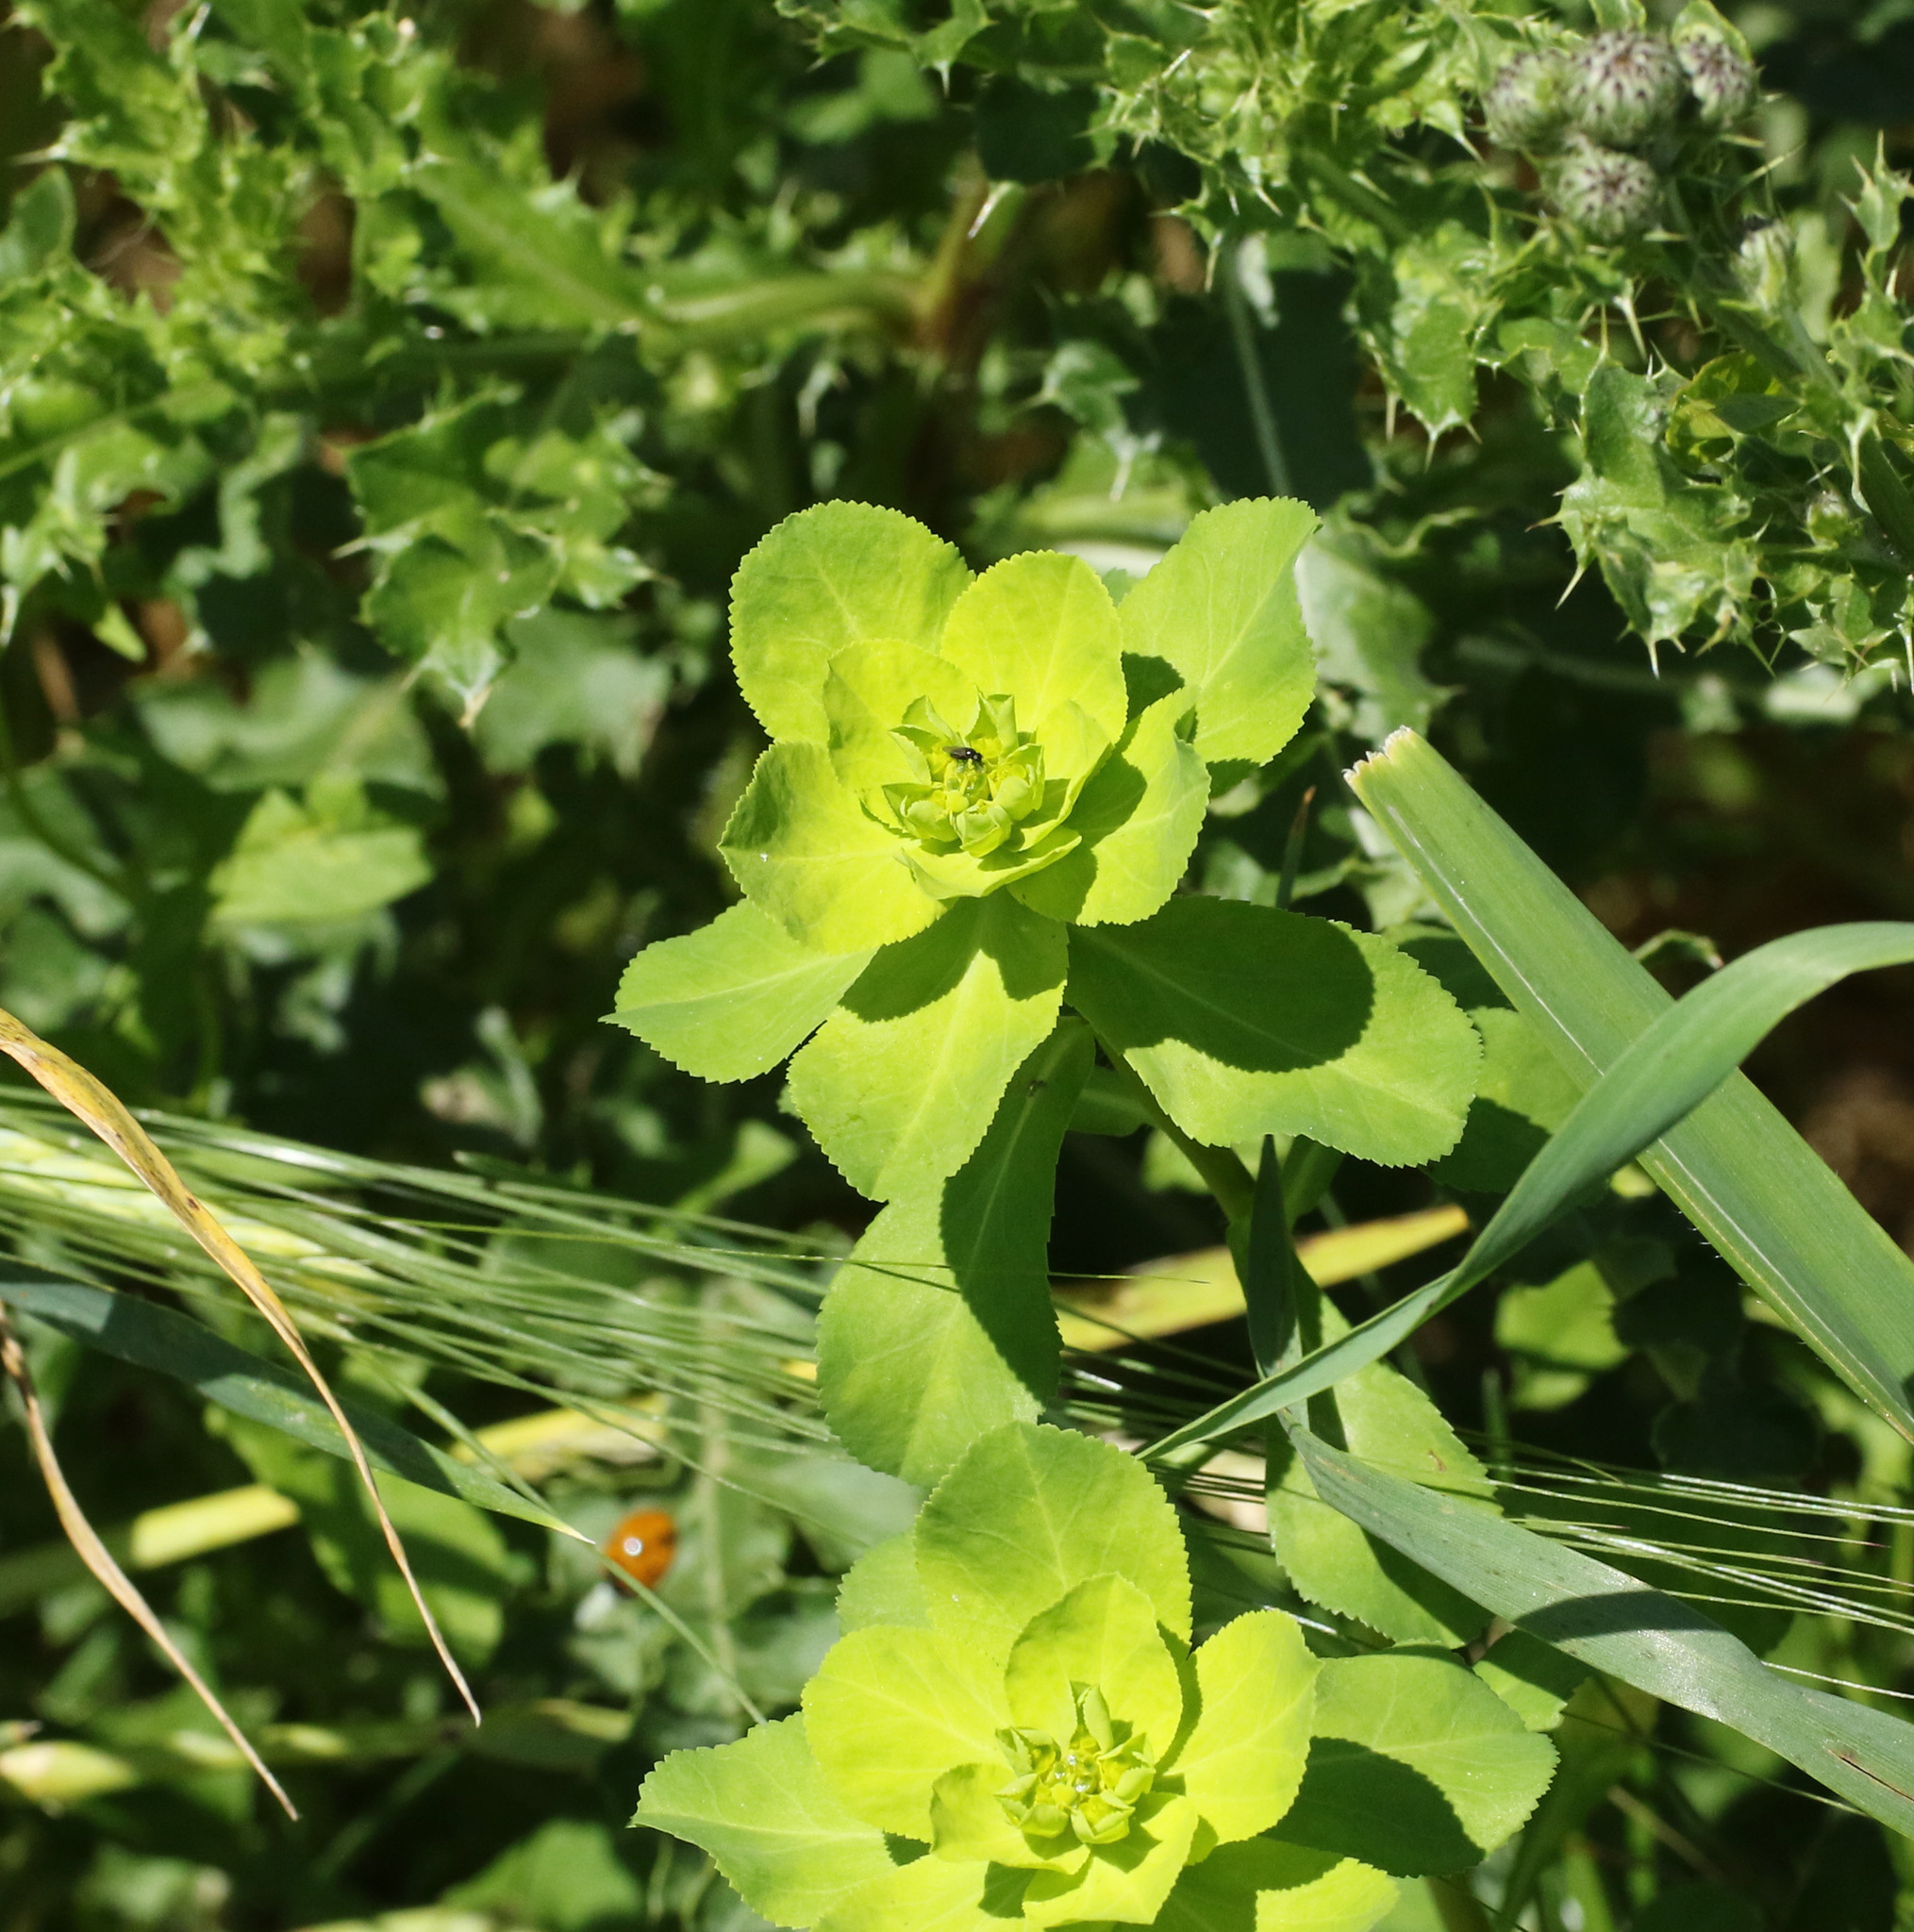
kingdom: Plantae
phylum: Tracheophyta
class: Magnoliopsida
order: Malpighiales
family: Euphorbiaceae
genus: Euphorbia
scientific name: Euphorbia helioscopia
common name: Sun spurge
